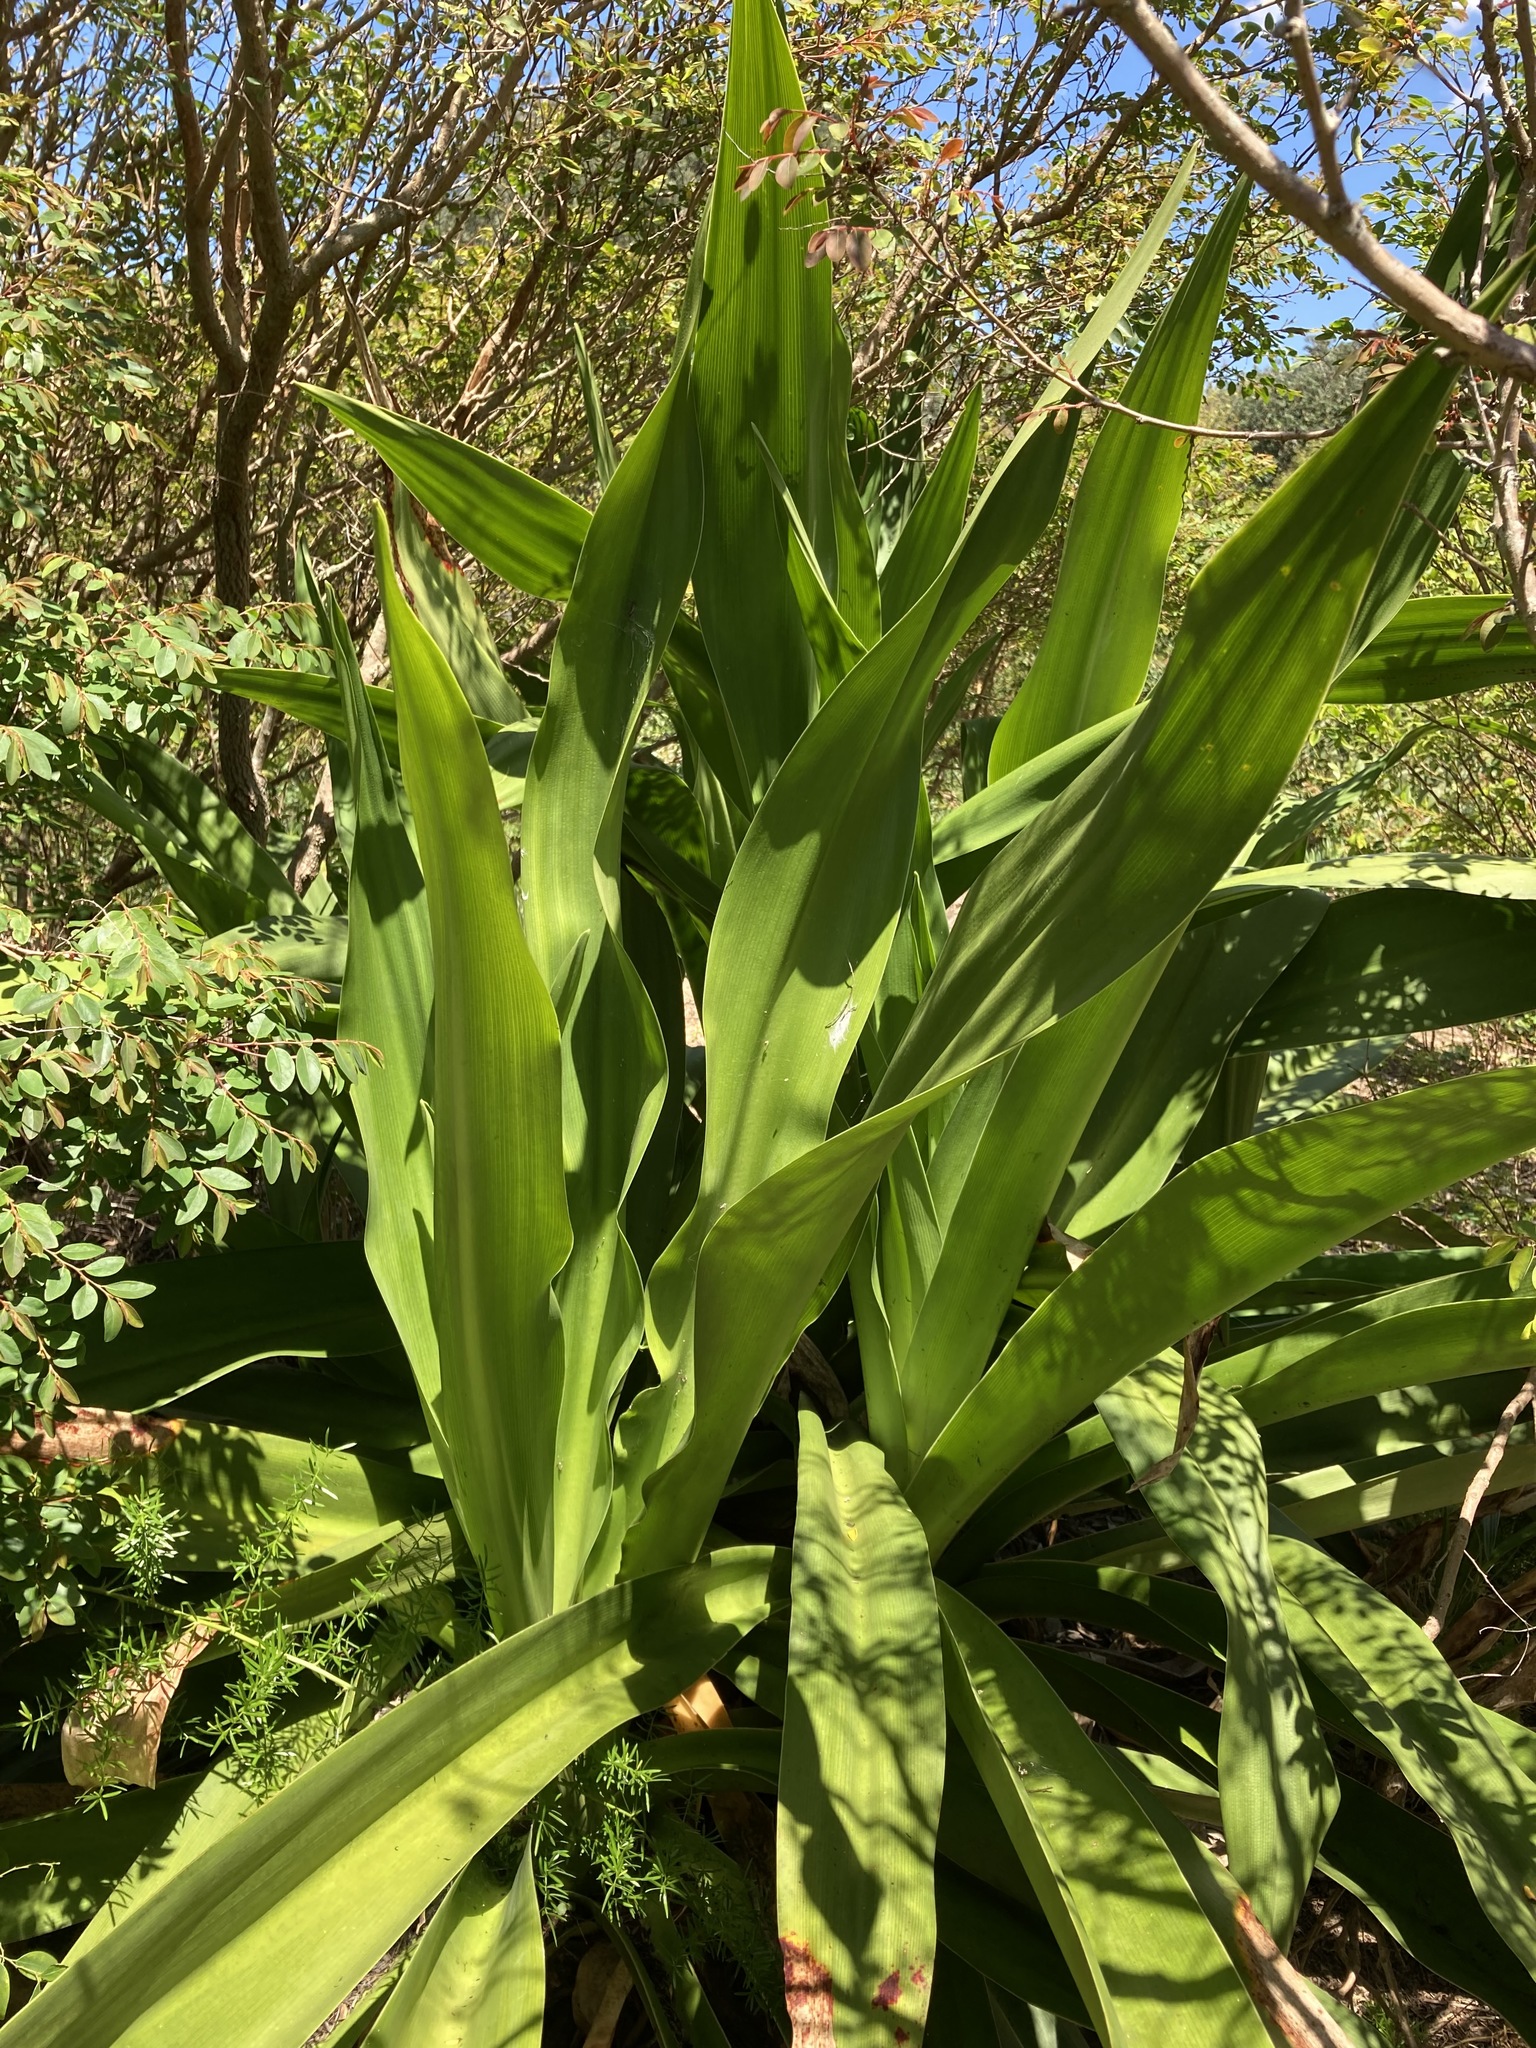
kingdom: Plantae
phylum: Tracheophyta
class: Liliopsida
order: Asparagales
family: Amaryllidaceae
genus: Crinum
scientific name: Crinum pedunculatum
